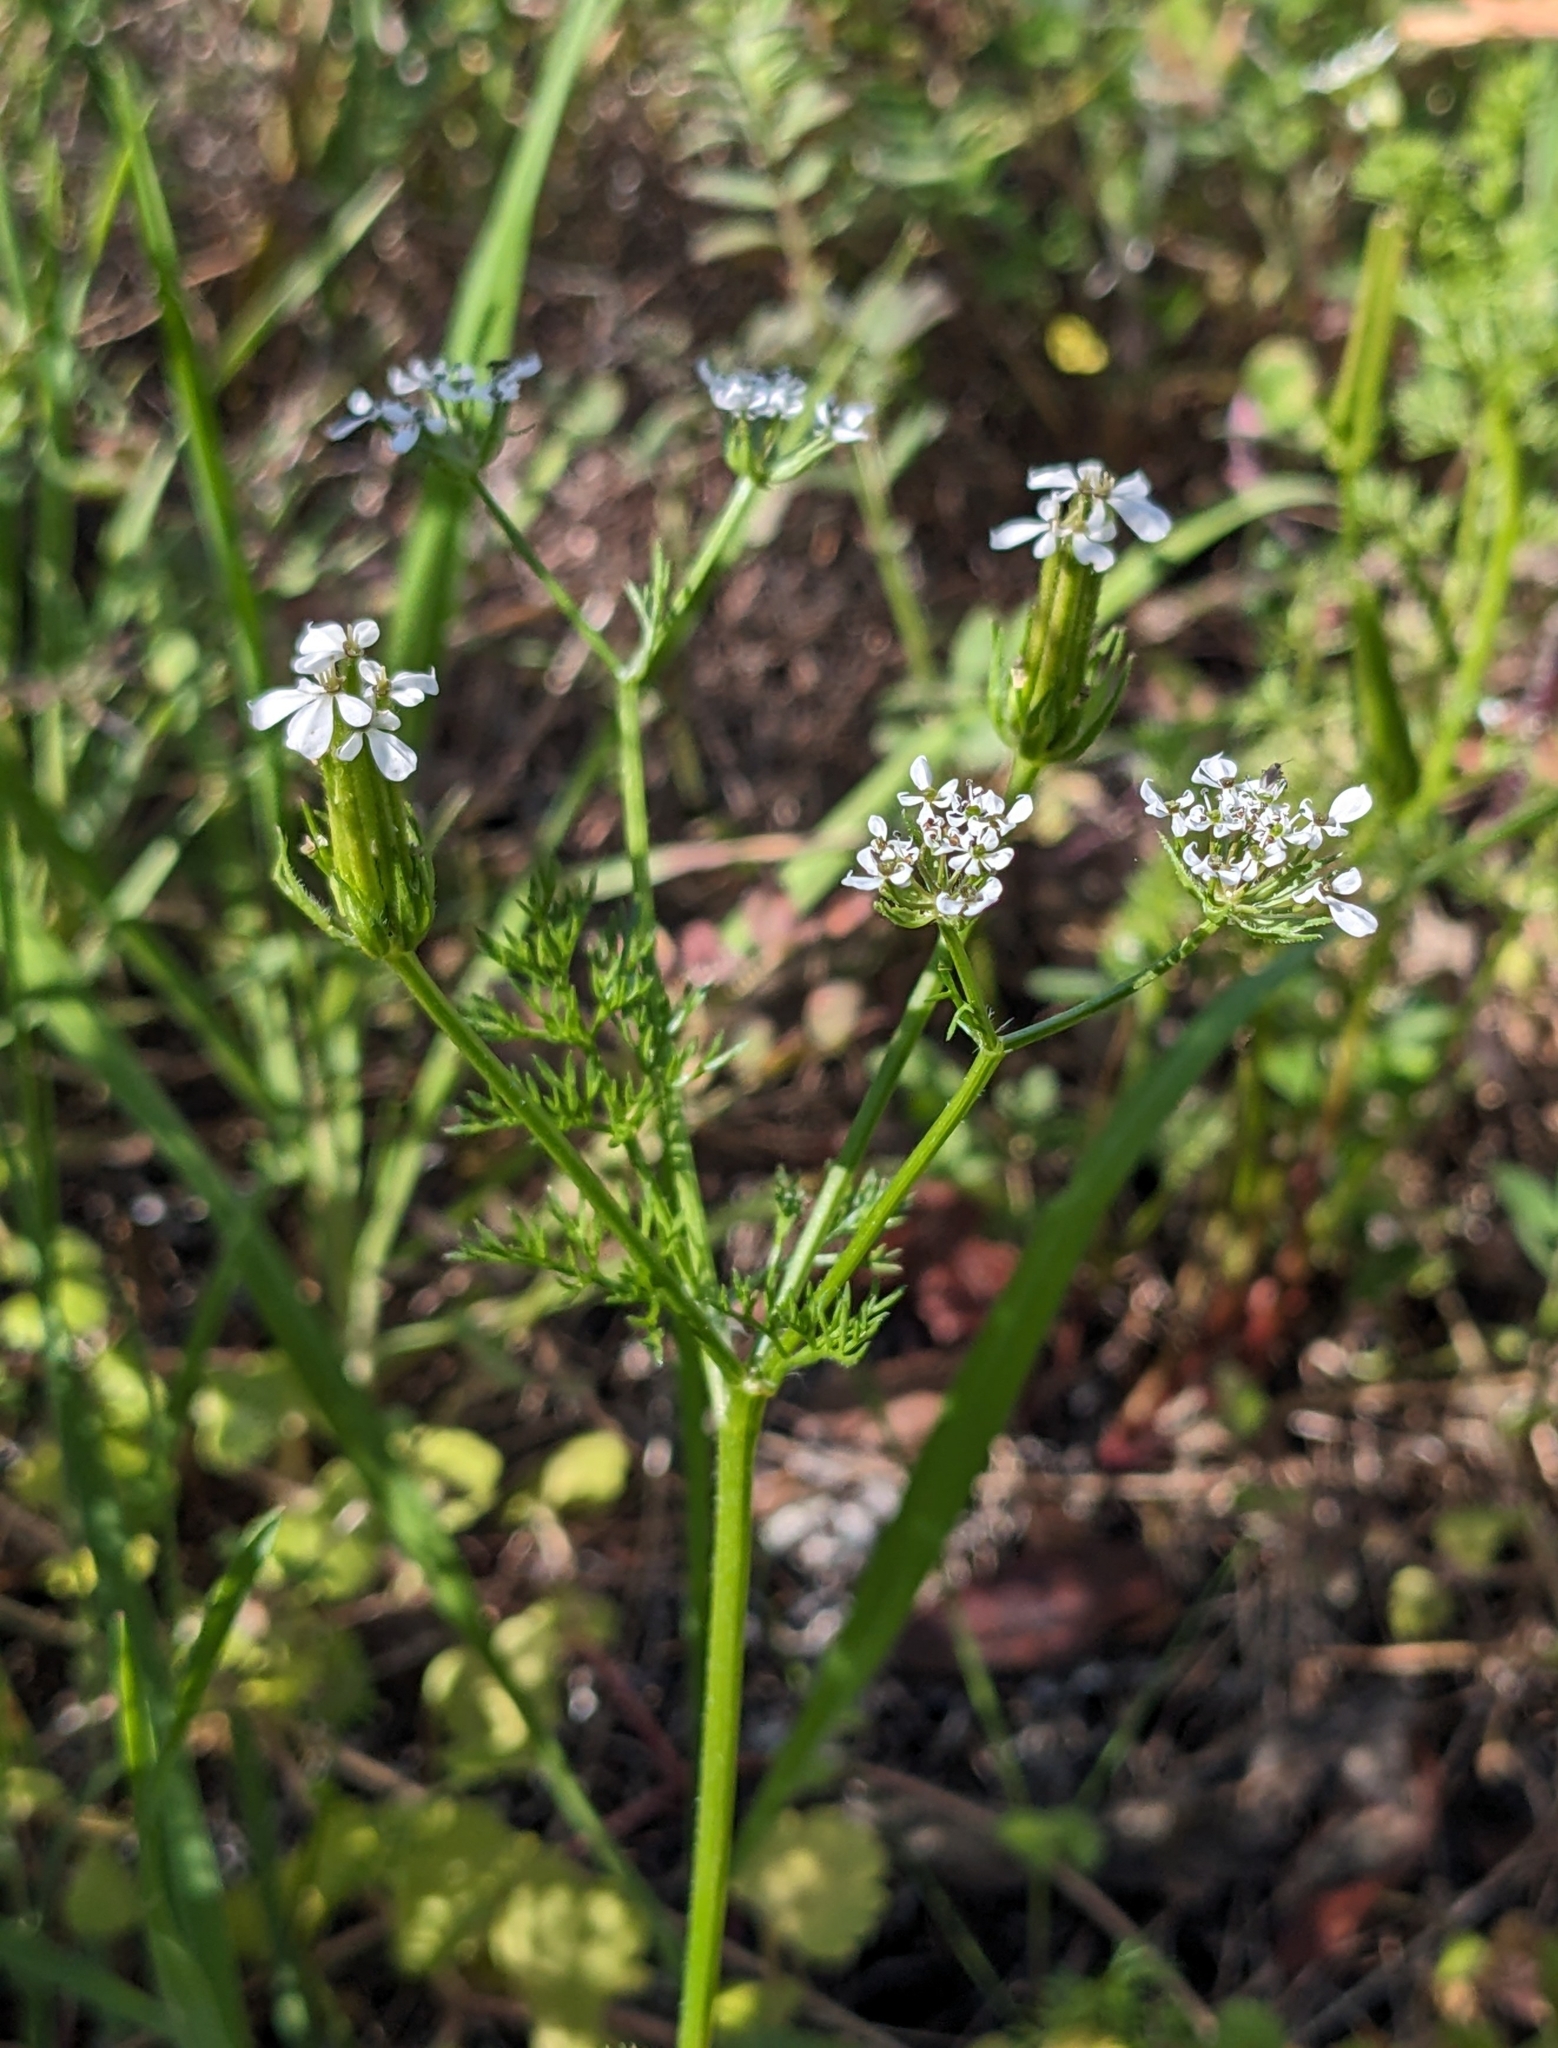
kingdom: Plantae
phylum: Tracheophyta
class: Magnoliopsida
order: Apiales
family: Apiaceae
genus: Scandix
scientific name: Scandix pecten-veneris
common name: Shepherd's-needle
